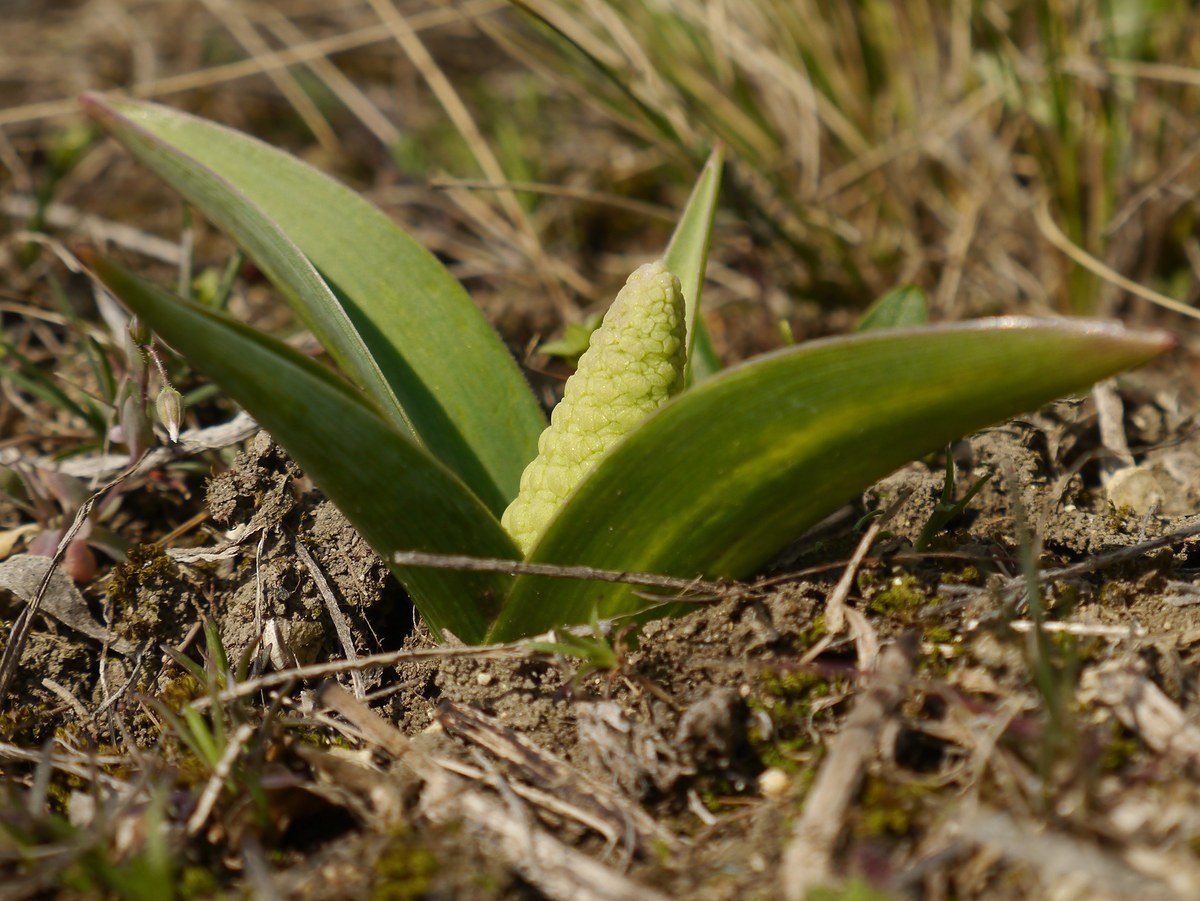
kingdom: Plantae
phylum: Tracheophyta
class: Liliopsida
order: Asparagales
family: Asparagaceae
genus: Bellevalia
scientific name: Bellevalia speciosa
